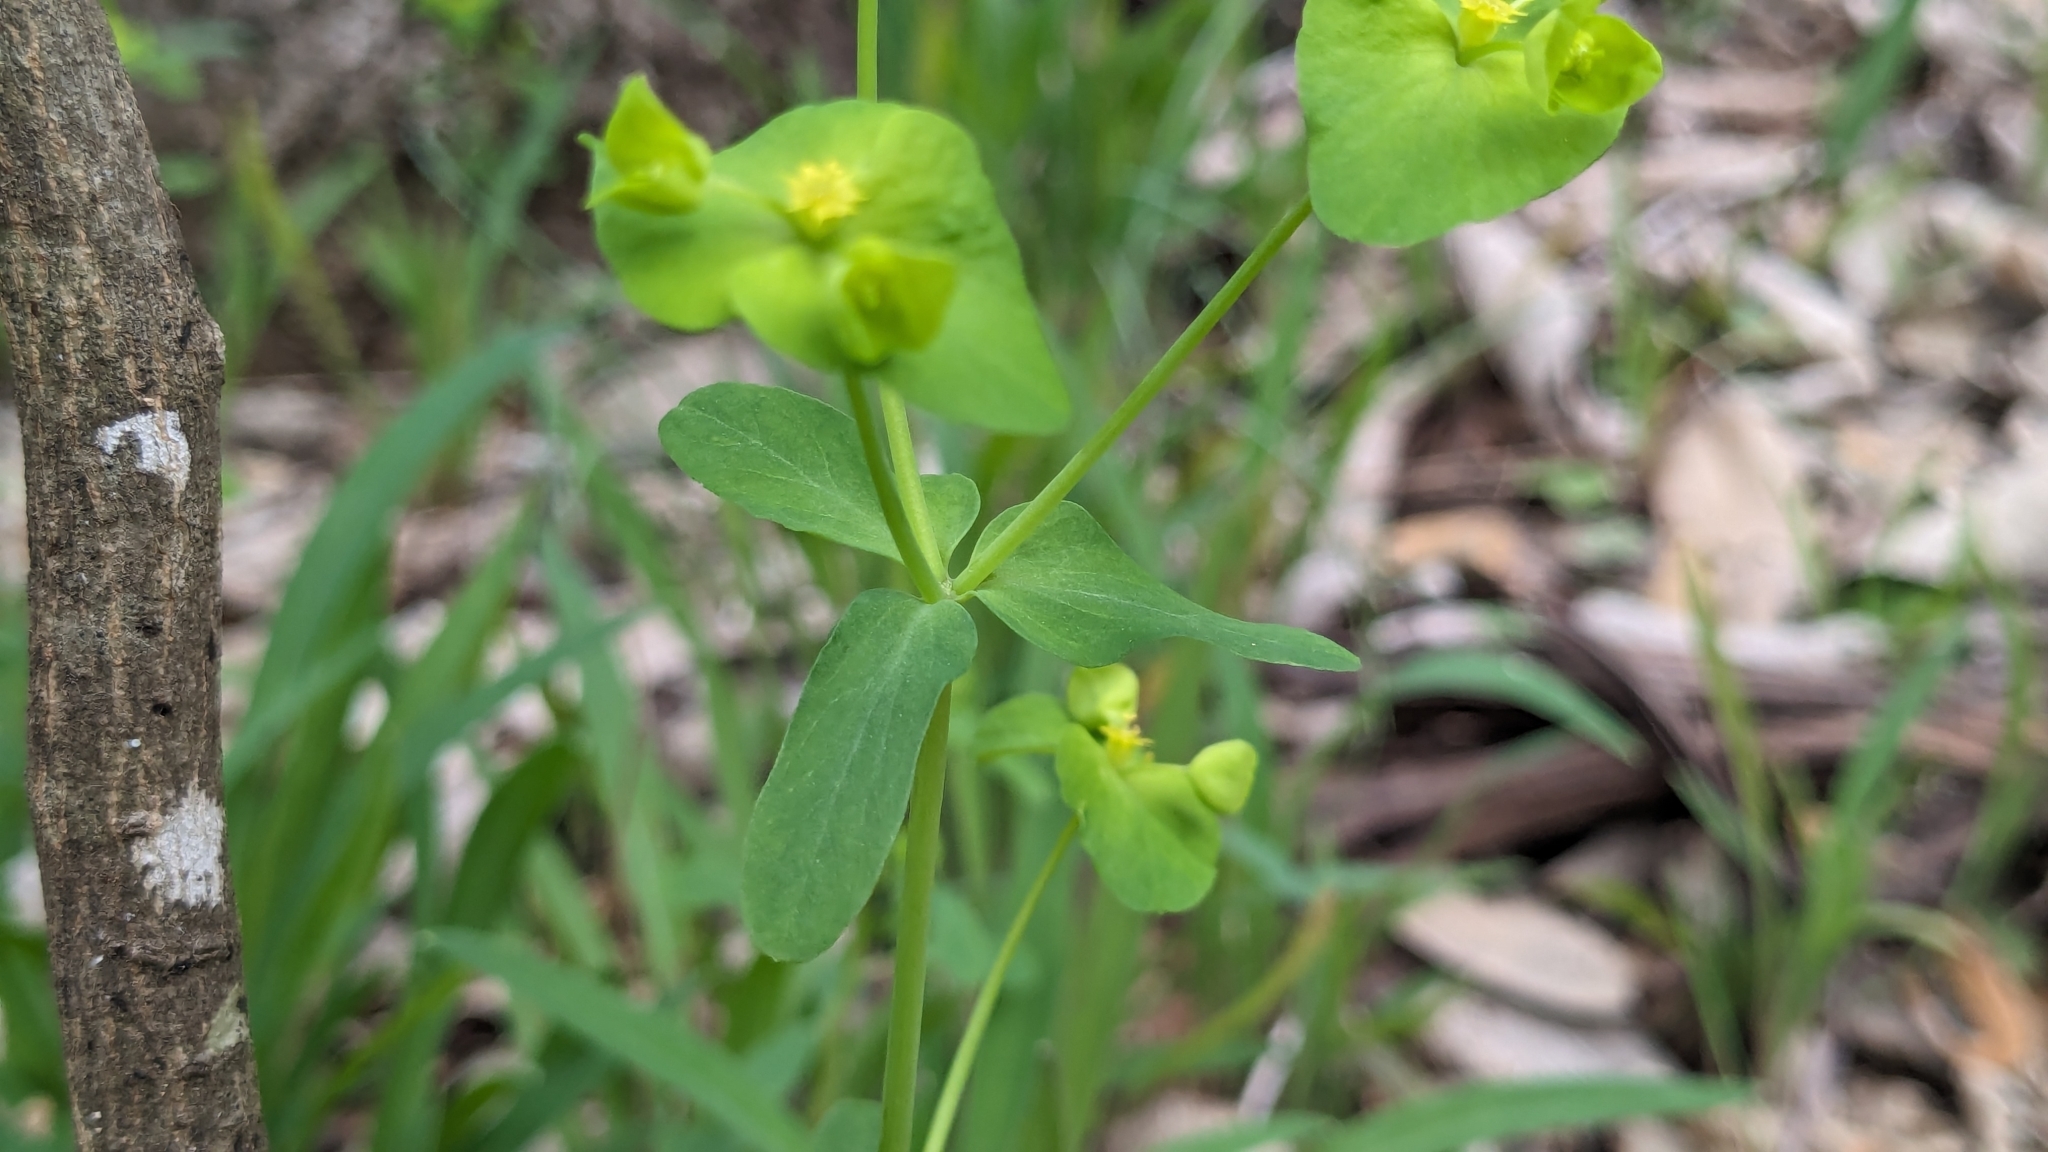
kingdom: Plantae
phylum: Tracheophyta
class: Magnoliopsida
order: Malpighiales
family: Euphorbiaceae
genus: Euphorbia
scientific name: Euphorbia roemeriana
